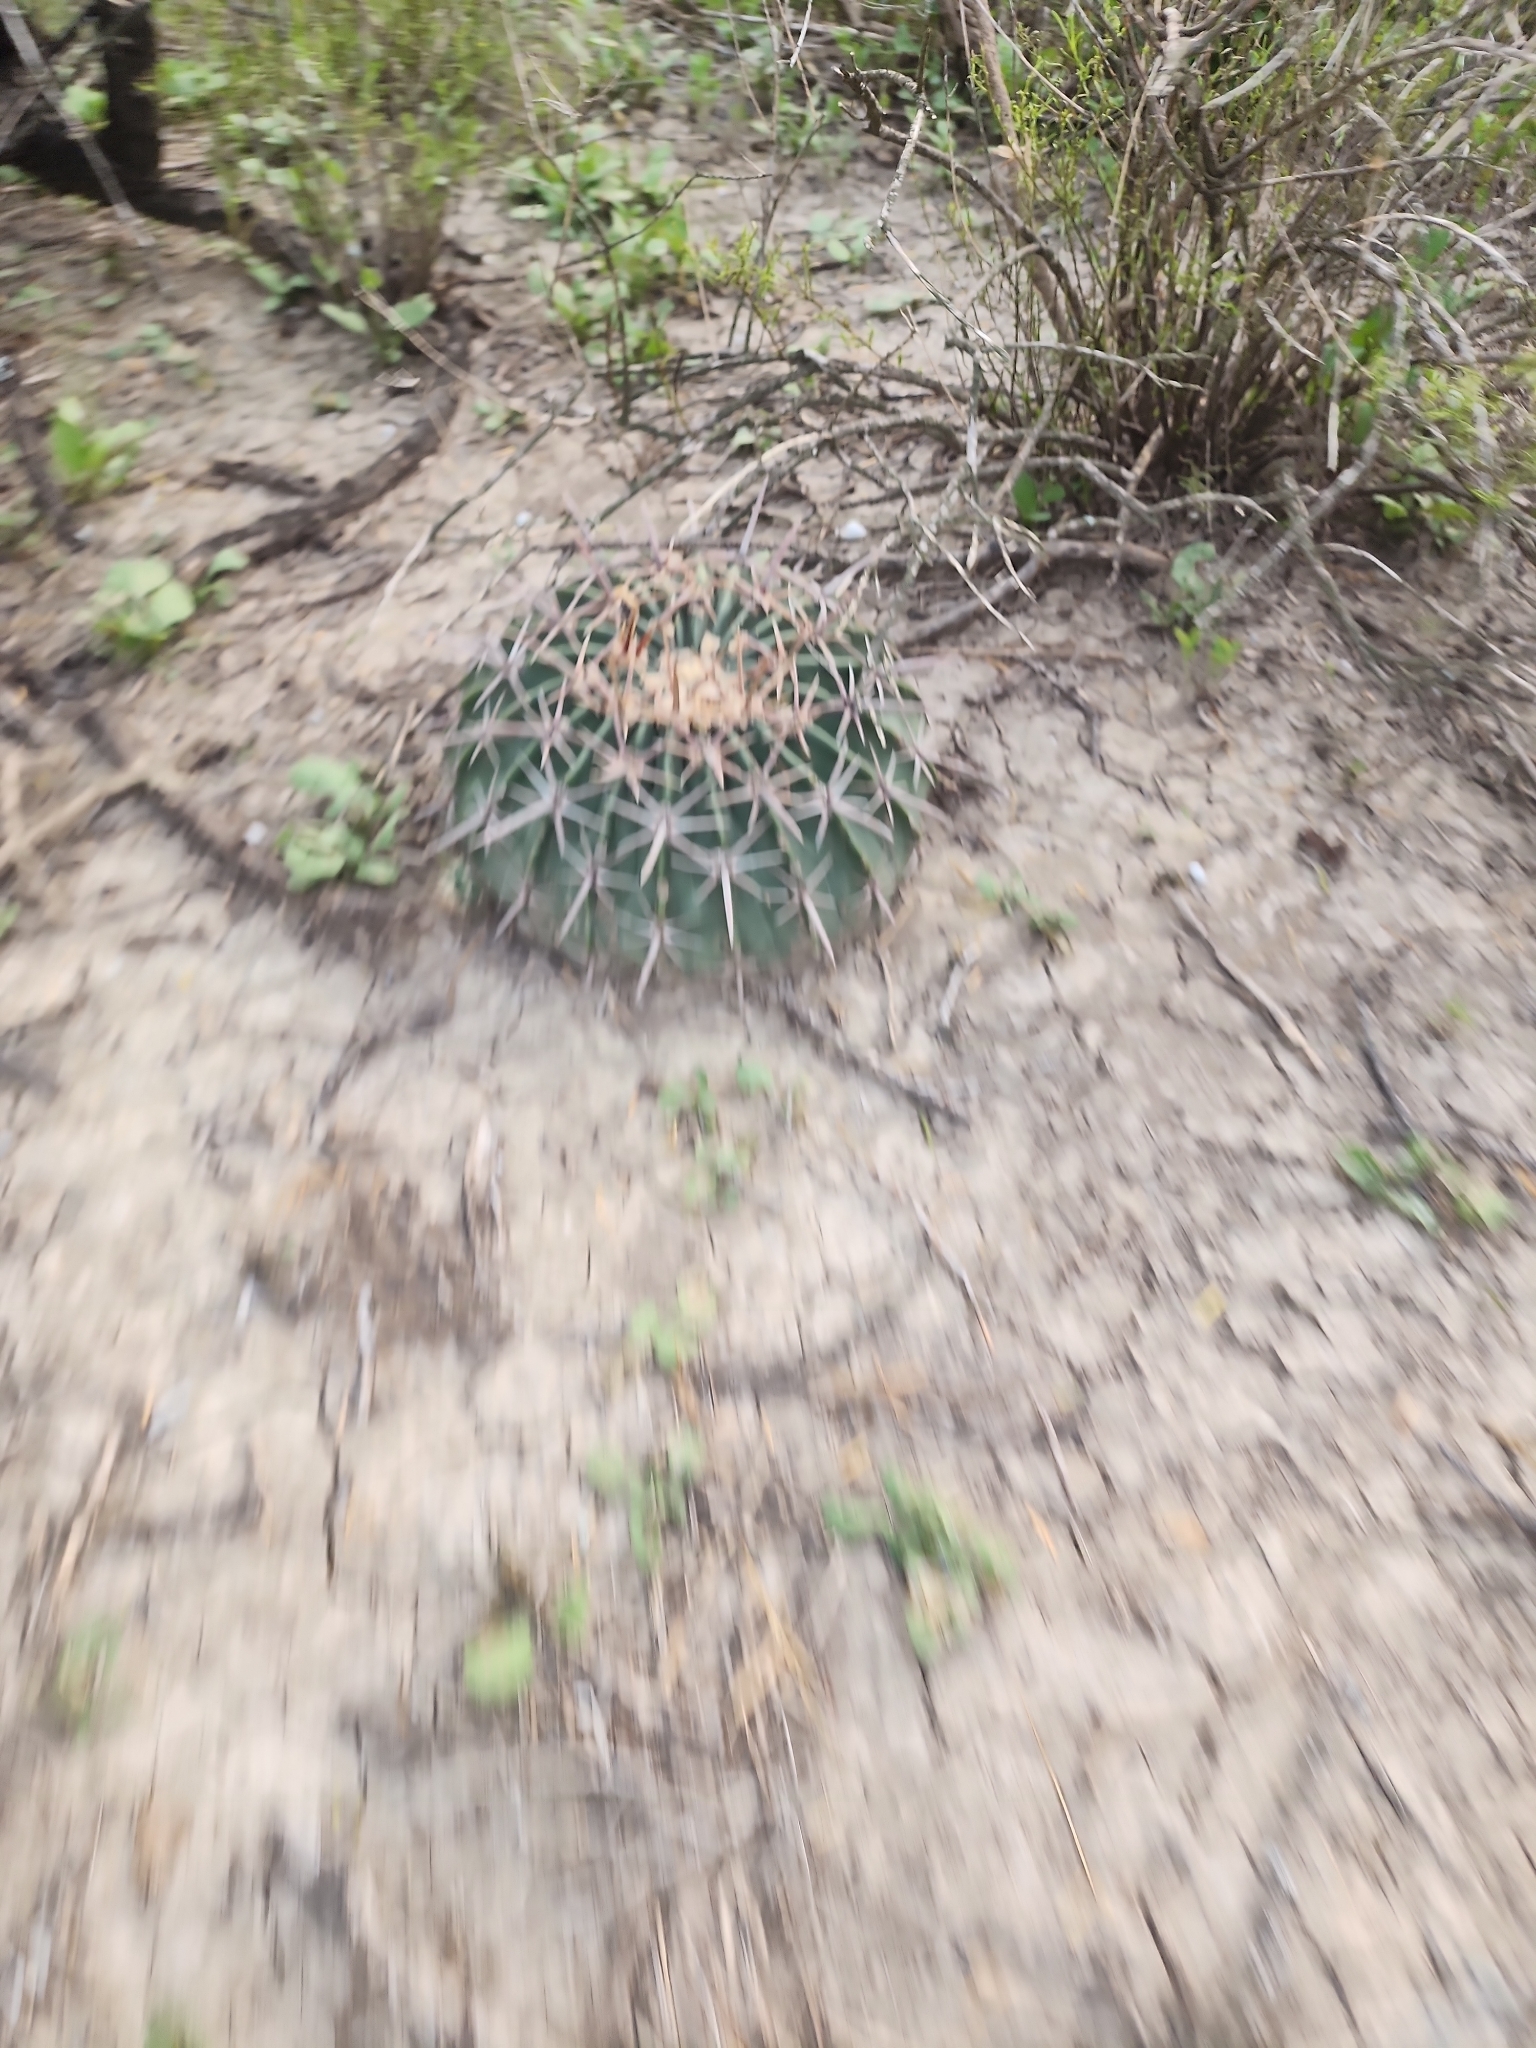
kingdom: Plantae
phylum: Tracheophyta
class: Magnoliopsida
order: Caryophyllales
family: Cactaceae
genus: Echinocactus
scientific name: Echinocactus texensis
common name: Devil's pincushion
